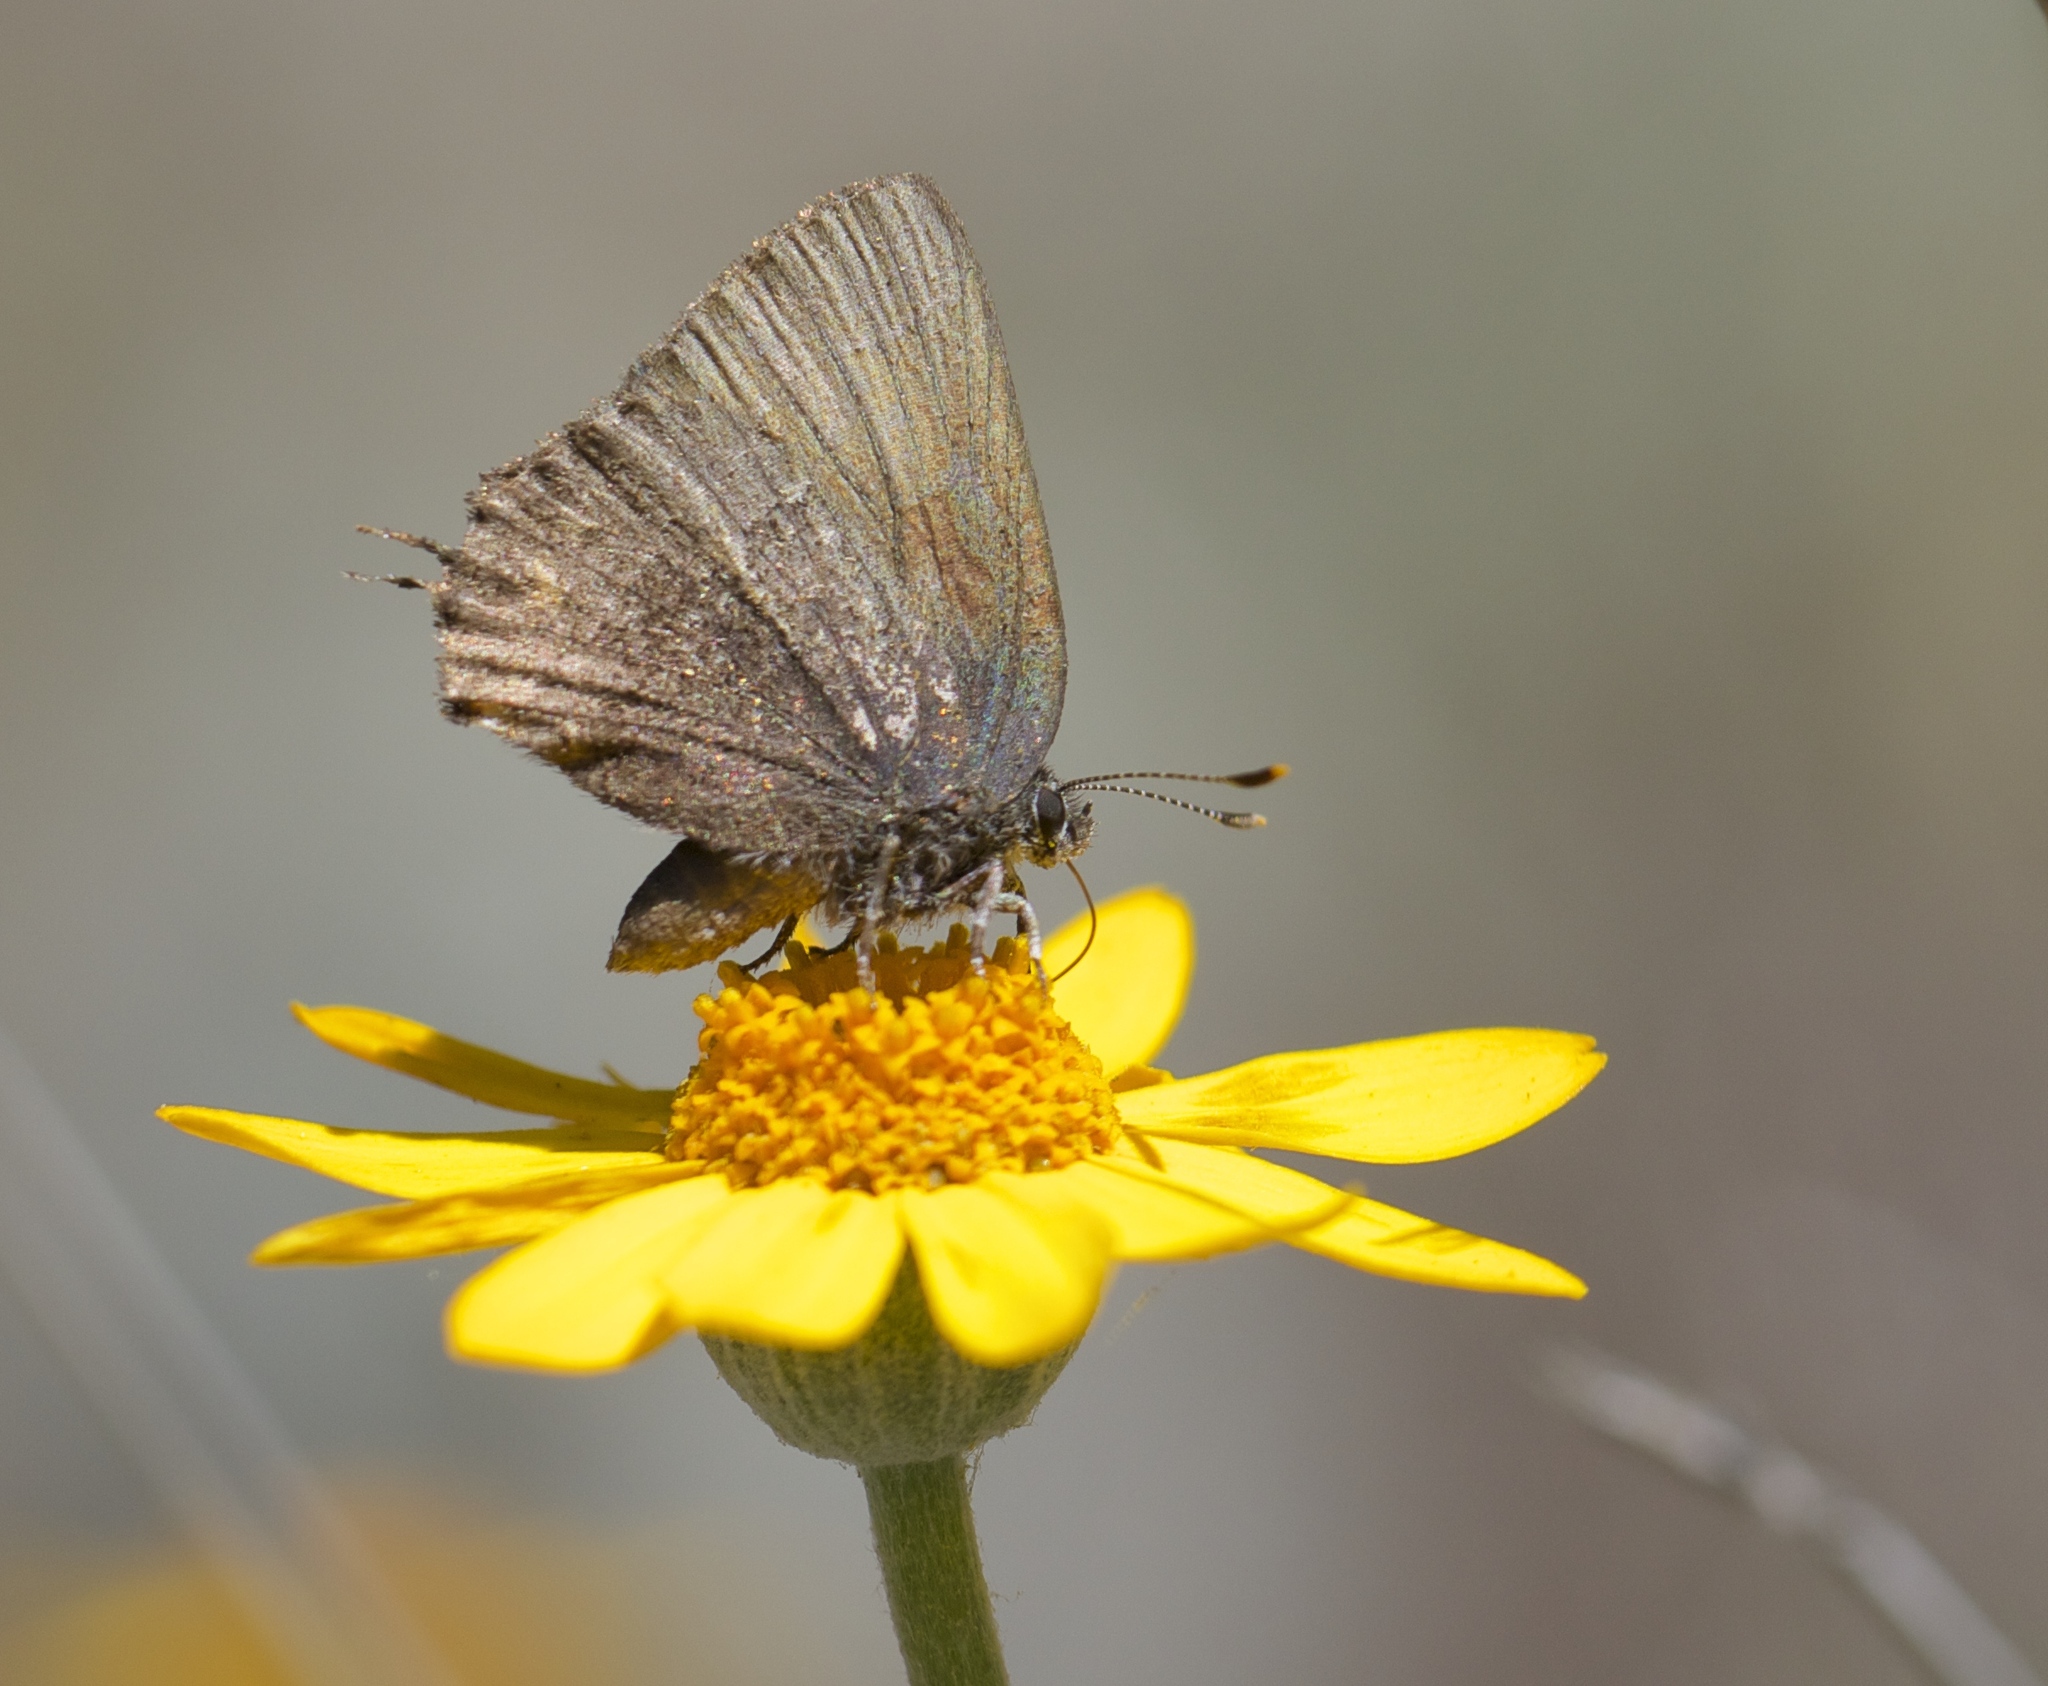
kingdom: Animalia
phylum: Arthropoda
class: Insecta
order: Lepidoptera
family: Lycaenidae
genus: Callophrys
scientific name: Callophrys muiri
